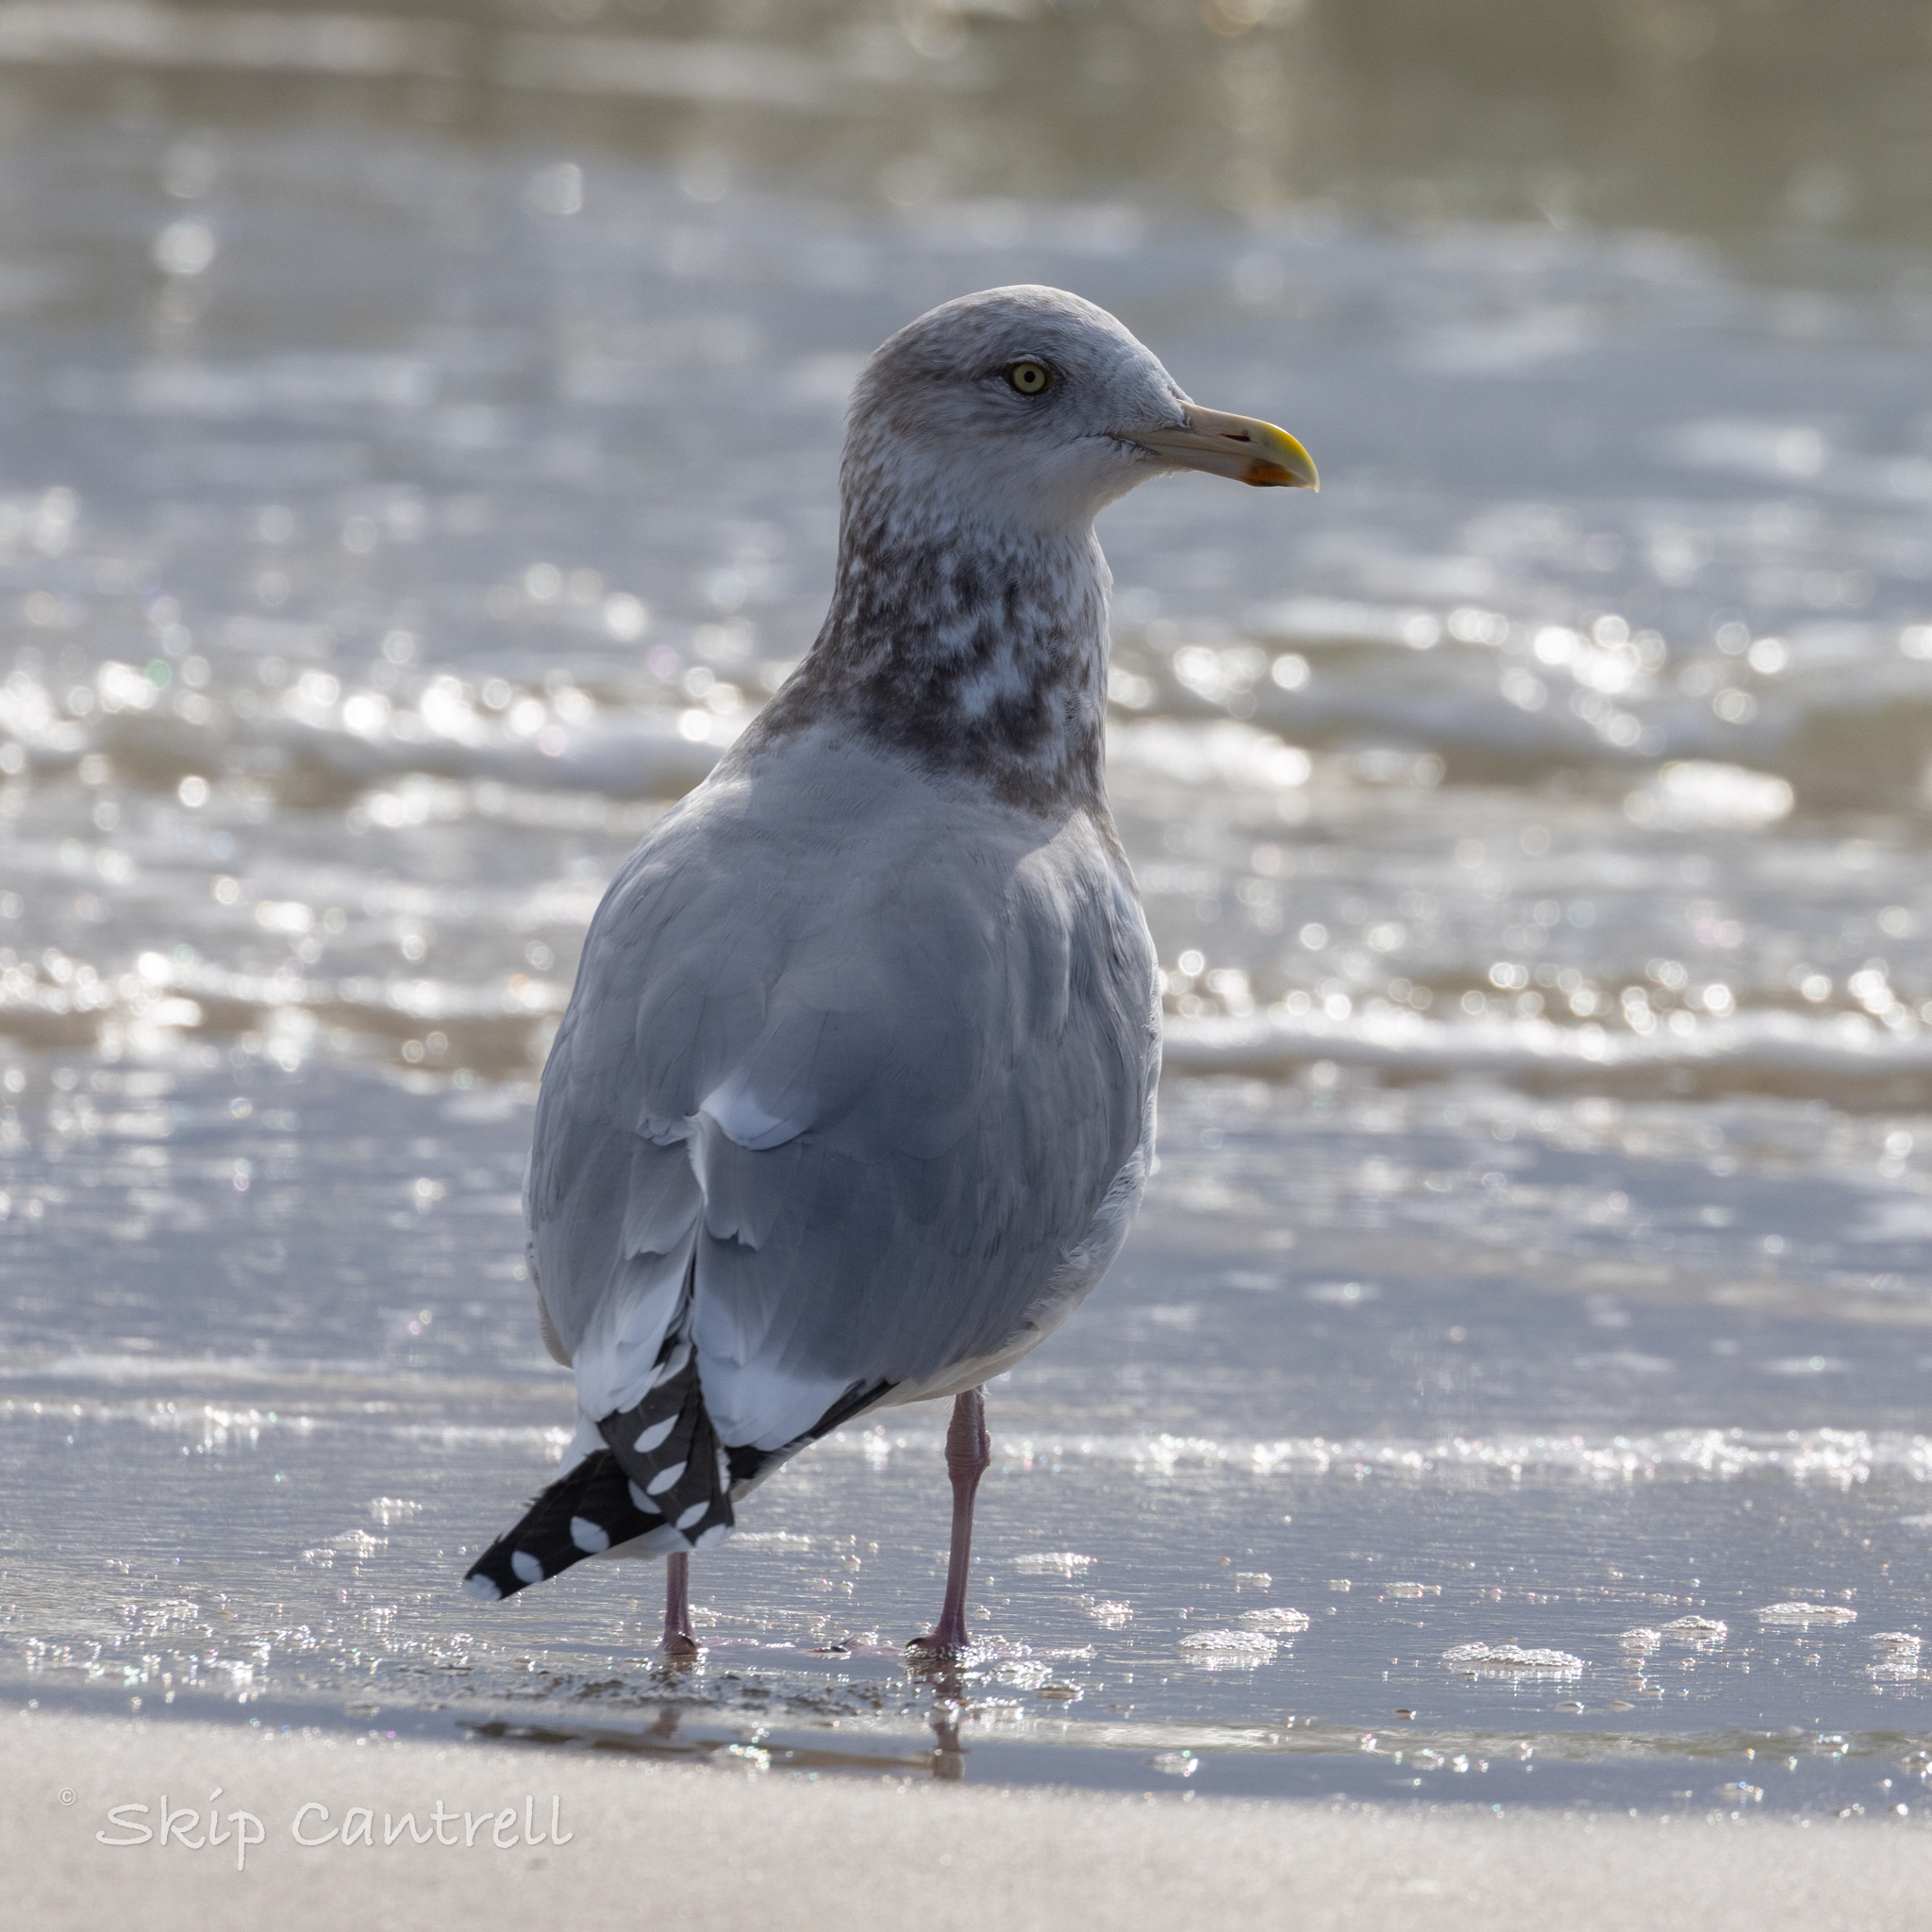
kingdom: Animalia
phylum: Chordata
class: Aves
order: Charadriiformes
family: Laridae
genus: Larus
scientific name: Larus argentatus
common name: Herring gull
